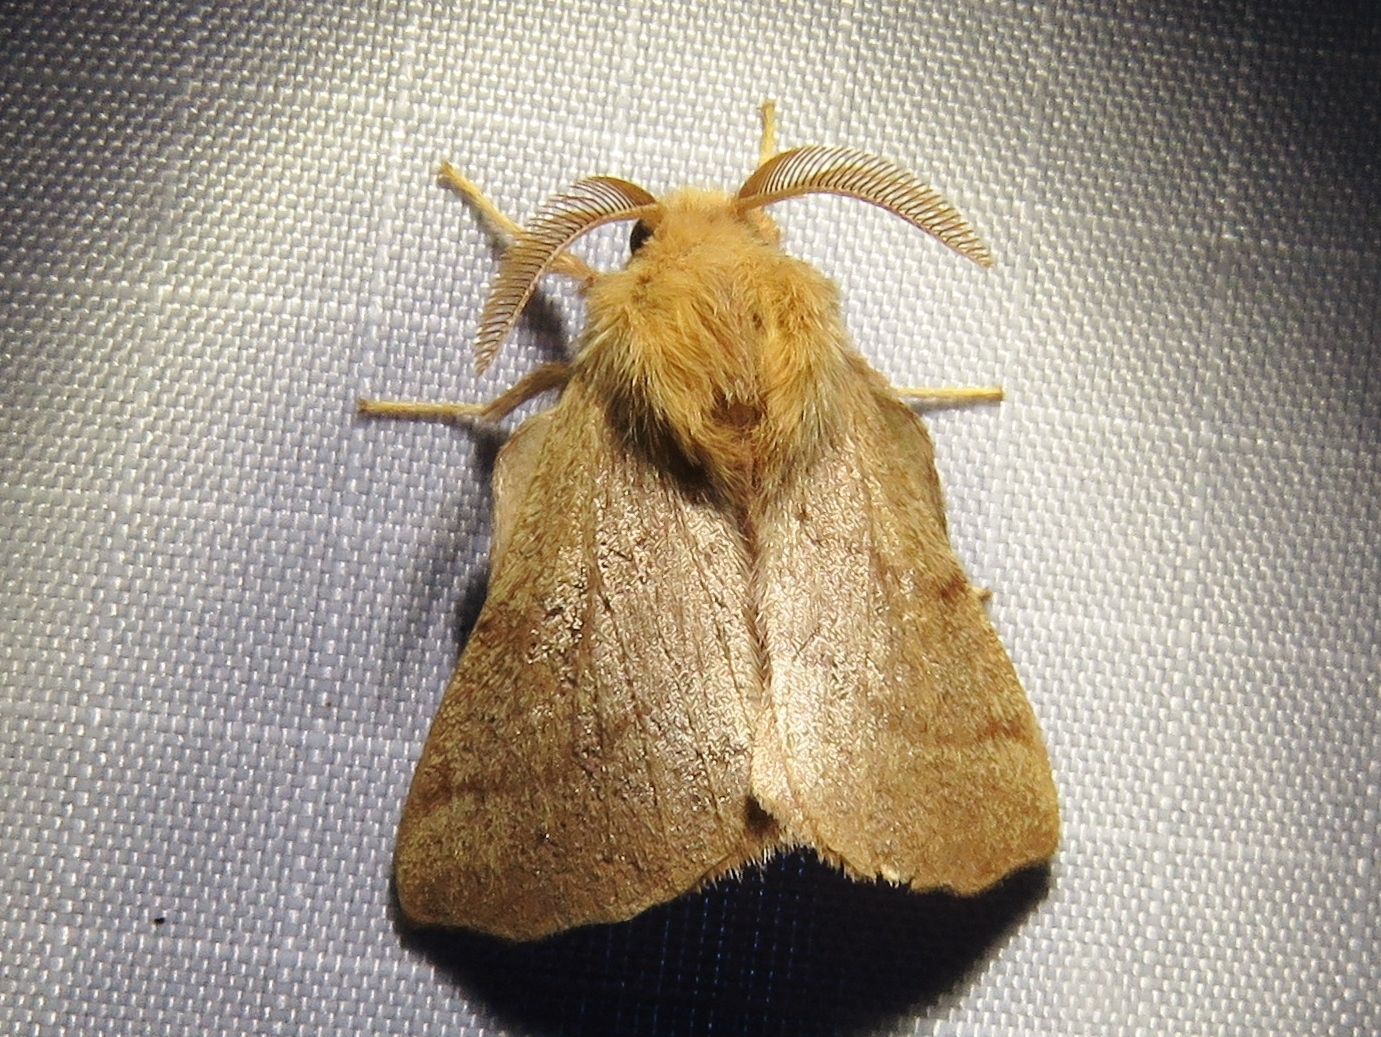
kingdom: Animalia
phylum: Arthropoda
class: Insecta
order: Lepidoptera
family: Lasiocampidae
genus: Malacosoma
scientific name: Malacosoma disstria
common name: Forest tent caterpillar
